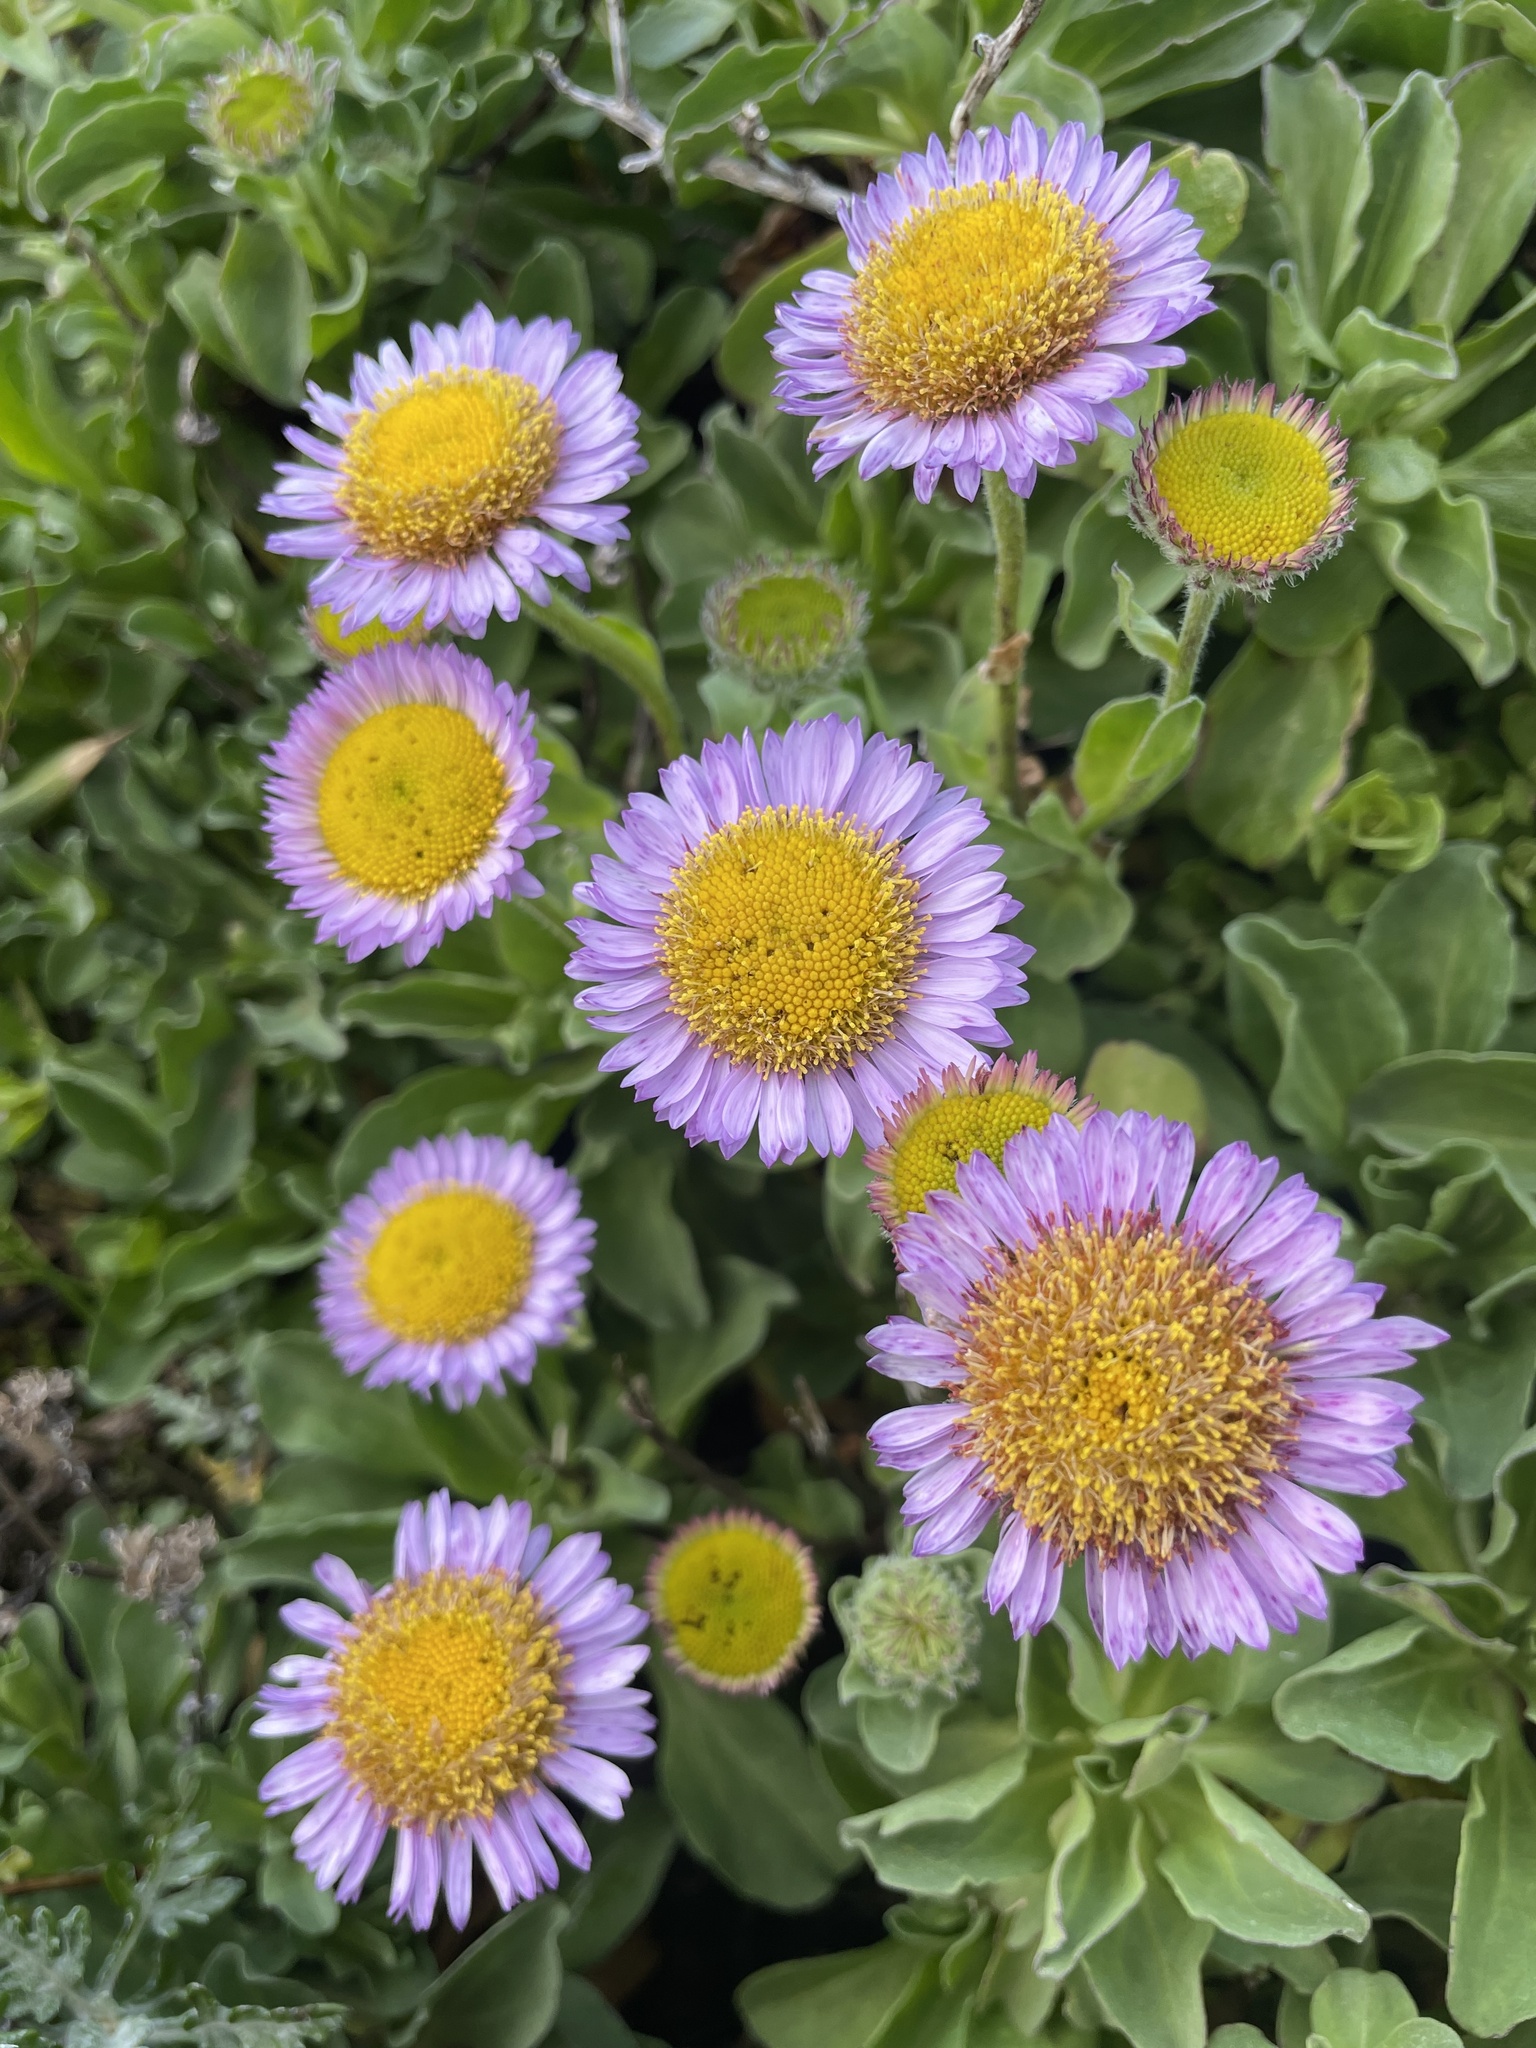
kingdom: Plantae
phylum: Tracheophyta
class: Magnoliopsida
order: Asterales
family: Asteraceae
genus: Erigeron
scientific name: Erigeron glaucus
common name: Seaside daisy
